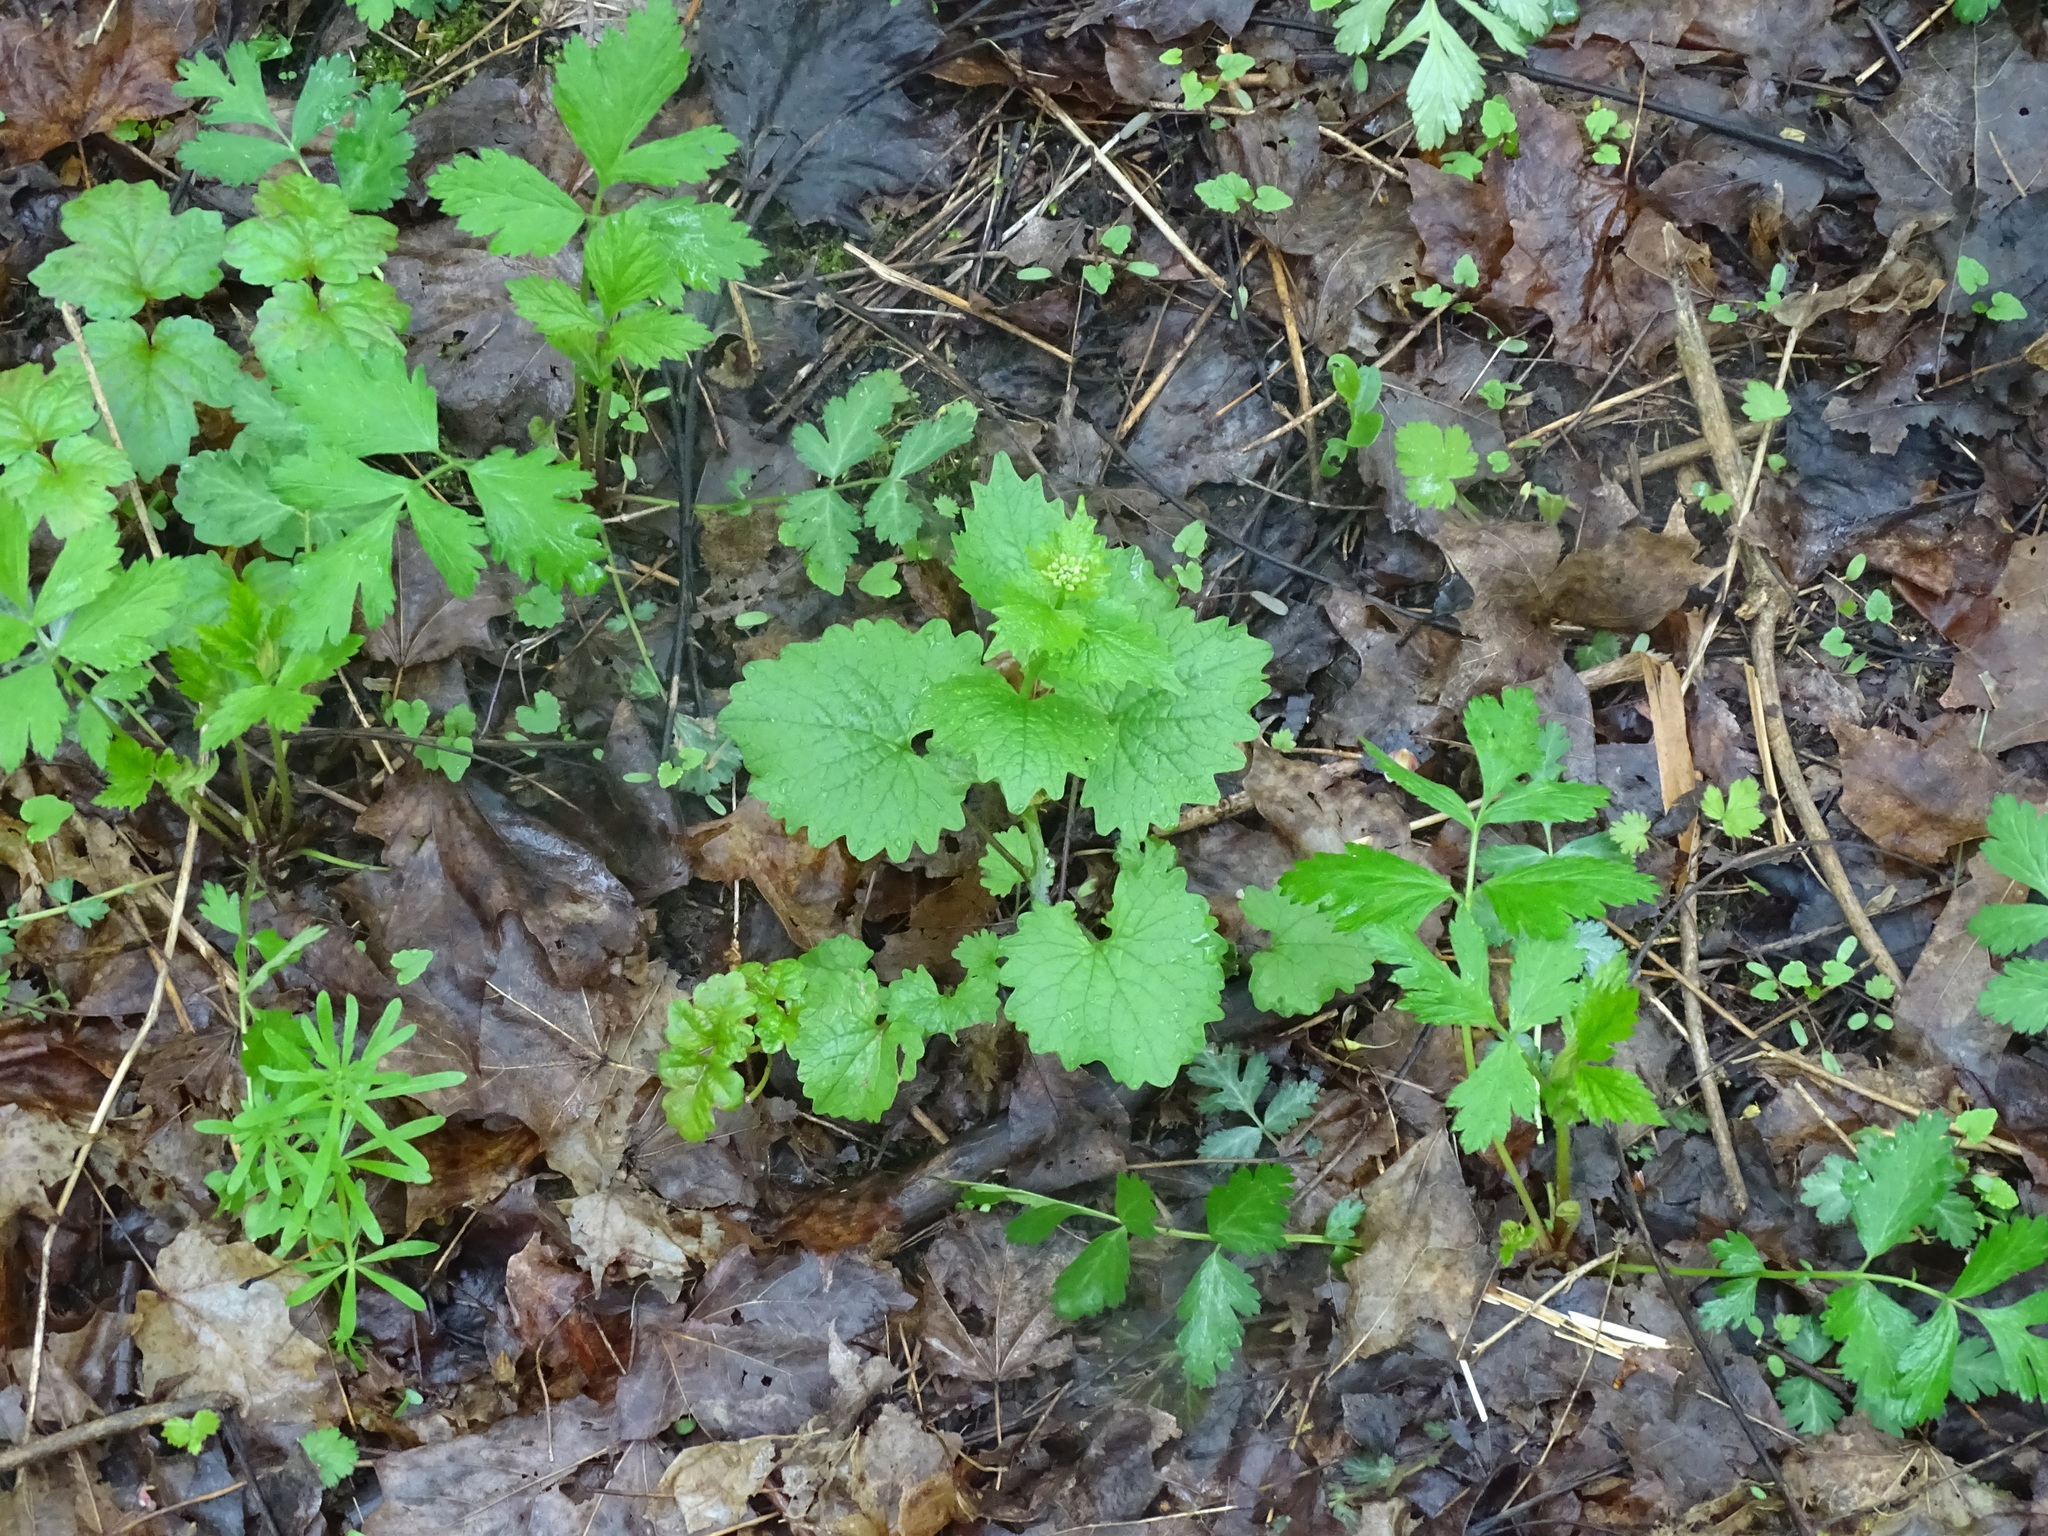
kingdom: Plantae
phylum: Tracheophyta
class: Magnoliopsida
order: Brassicales
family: Brassicaceae
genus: Alliaria
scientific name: Alliaria petiolata
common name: Garlic mustard
